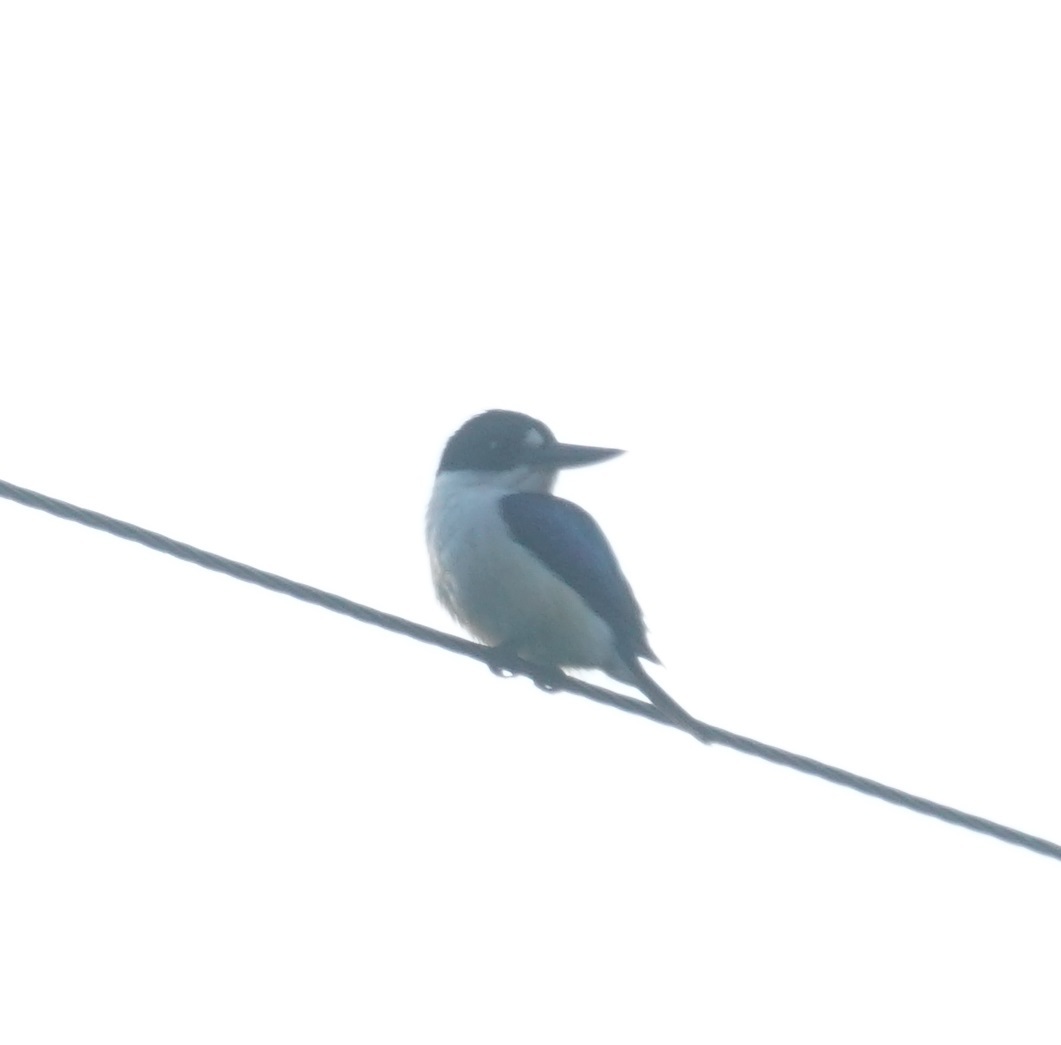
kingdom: Animalia
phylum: Chordata
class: Aves
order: Coraciiformes
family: Alcedinidae
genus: Todiramphus
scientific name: Todiramphus macleayii
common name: Forest kingfisher
